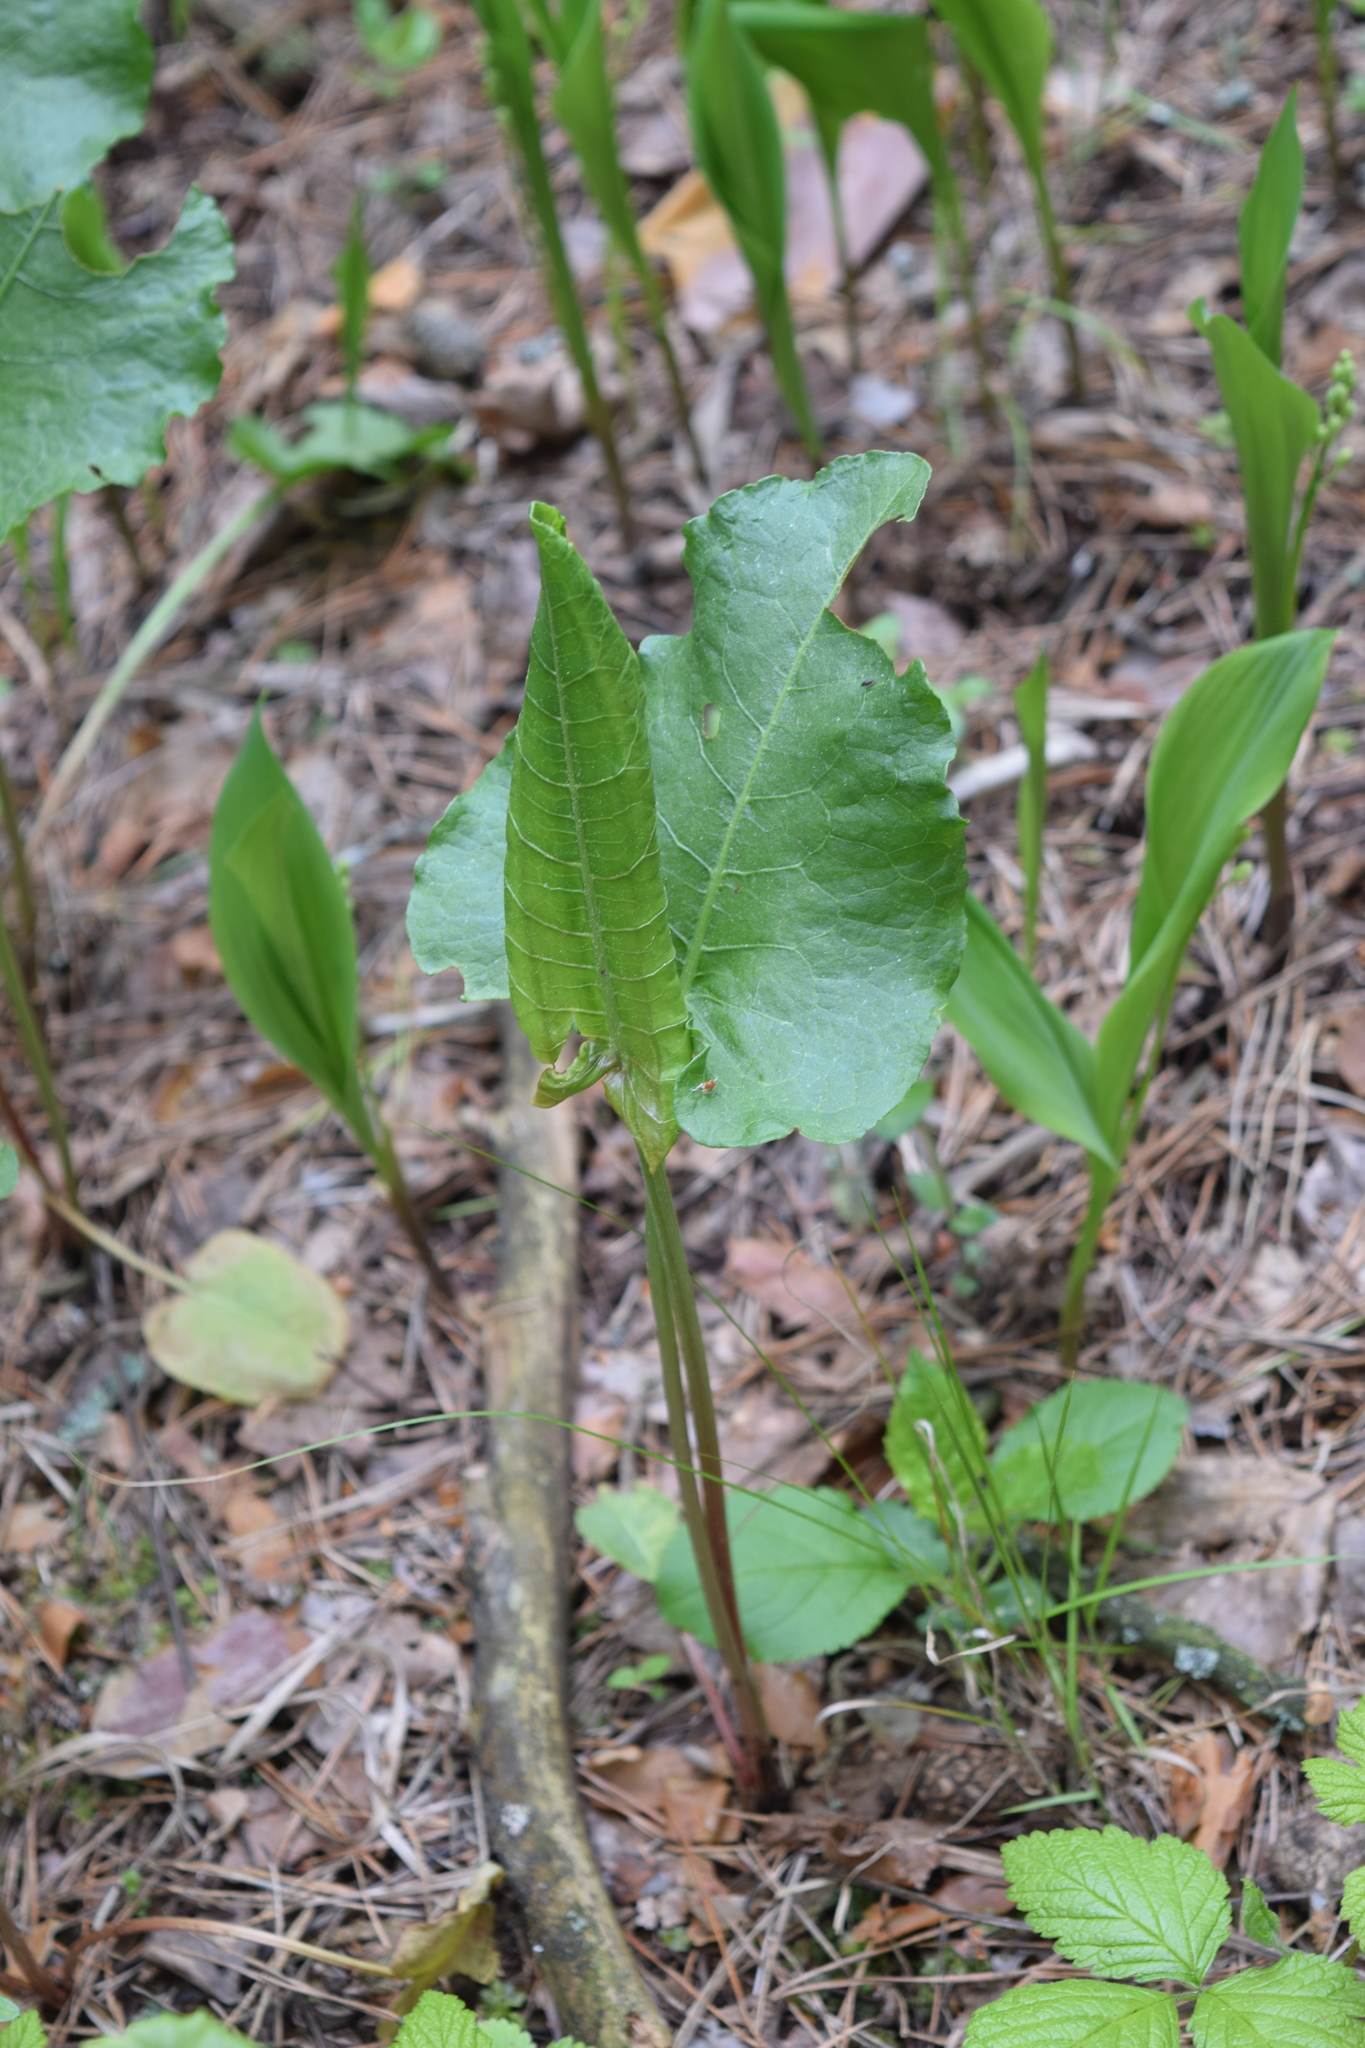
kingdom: Plantae
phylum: Tracheophyta
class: Magnoliopsida
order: Caryophyllales
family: Polygonaceae
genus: Rumex
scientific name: Rumex confertus
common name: Russian dock
